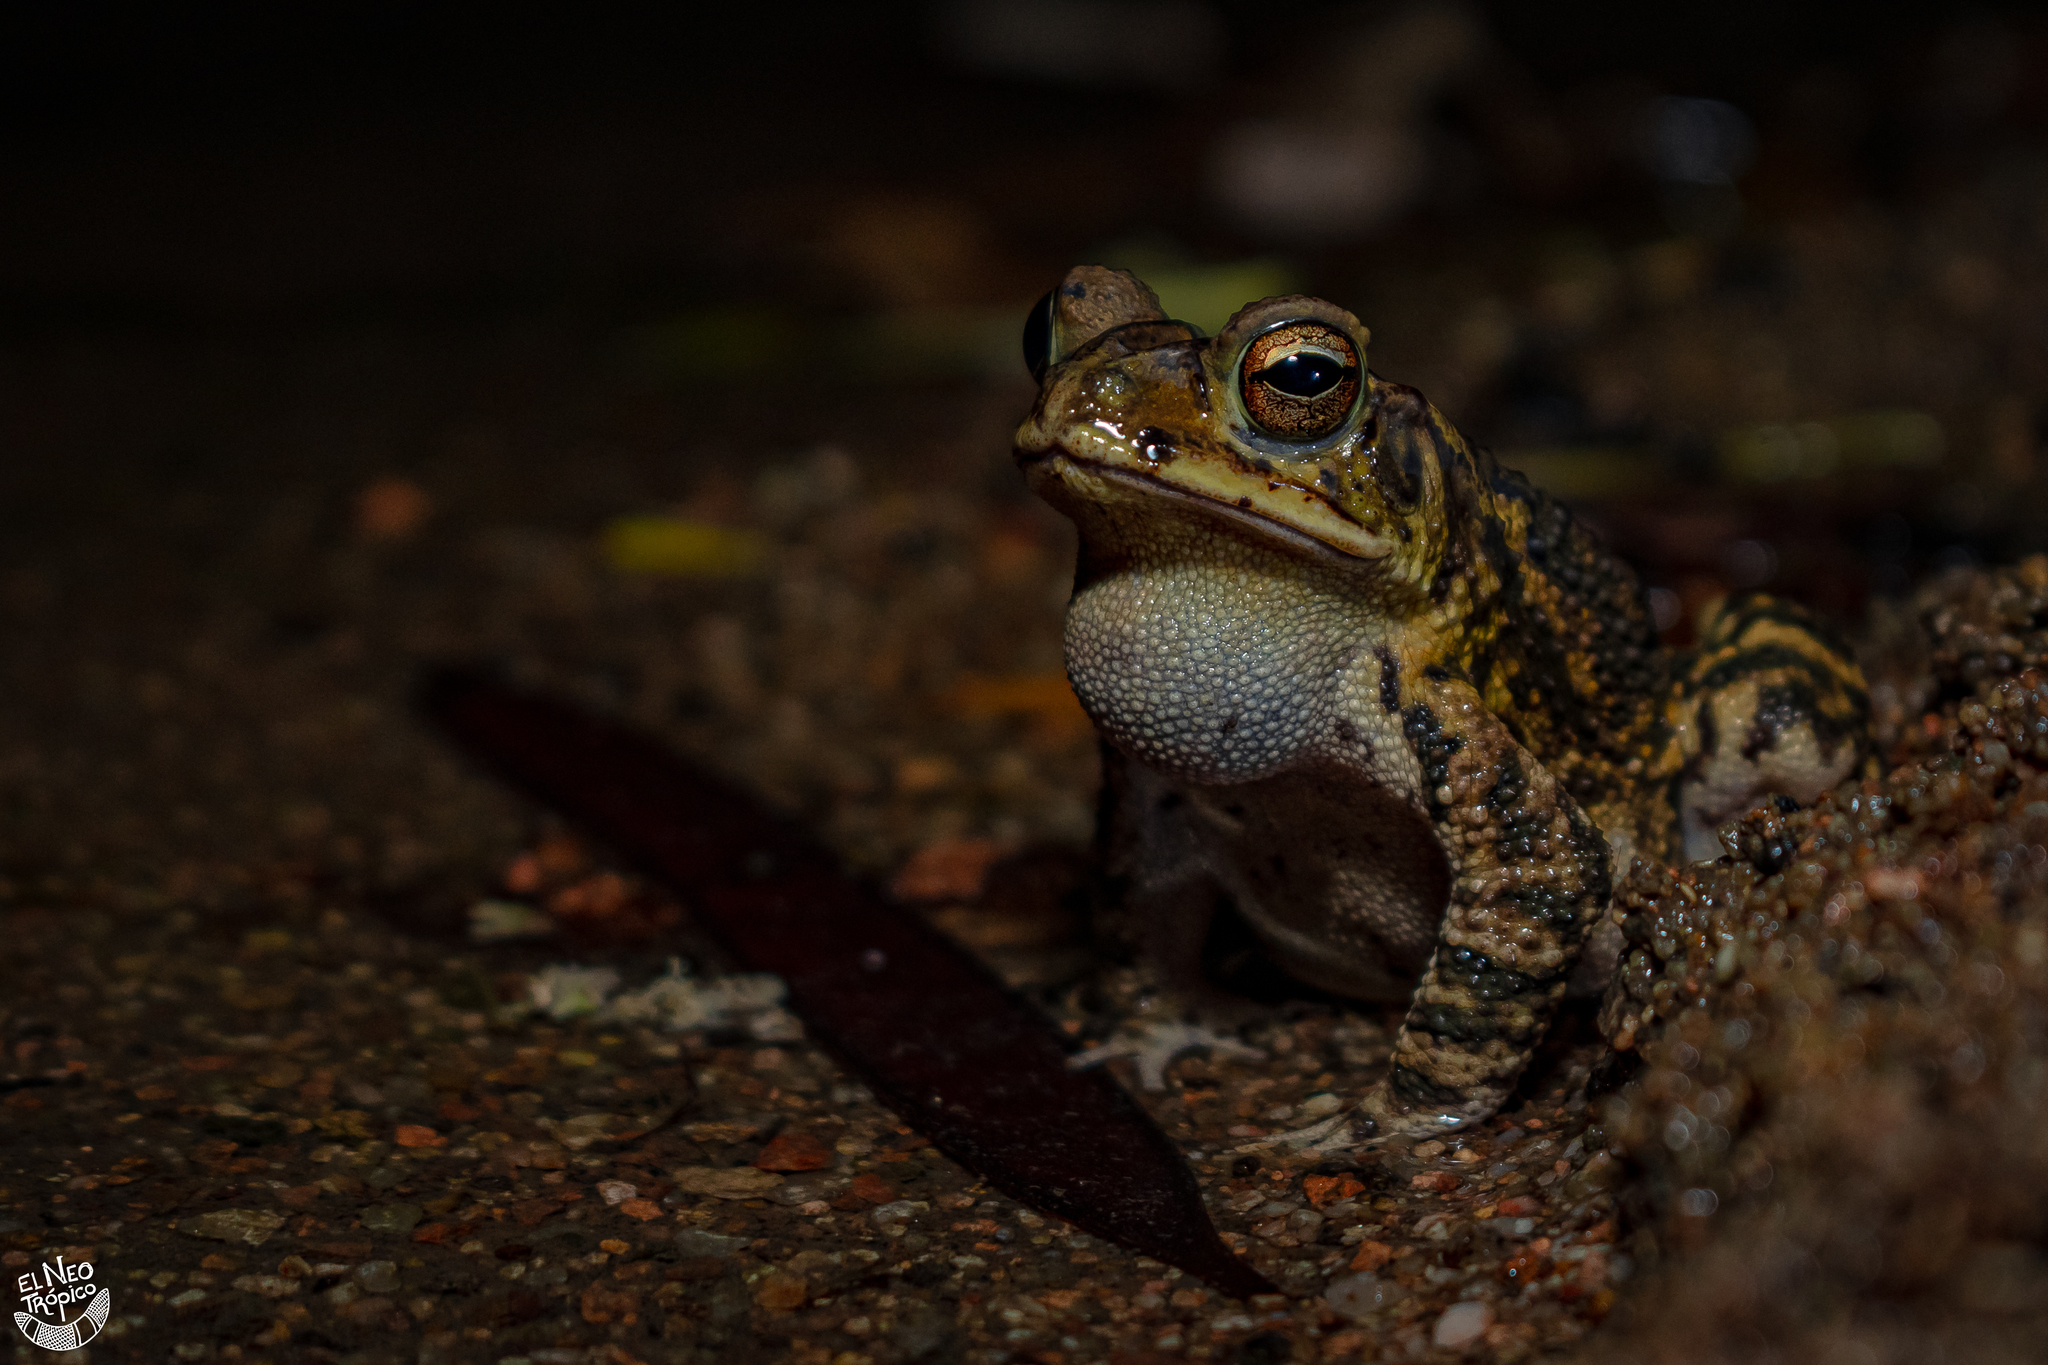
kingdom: Animalia
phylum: Chordata
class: Amphibia
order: Anura
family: Bufonidae
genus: Incilius
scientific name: Incilius valliceps
